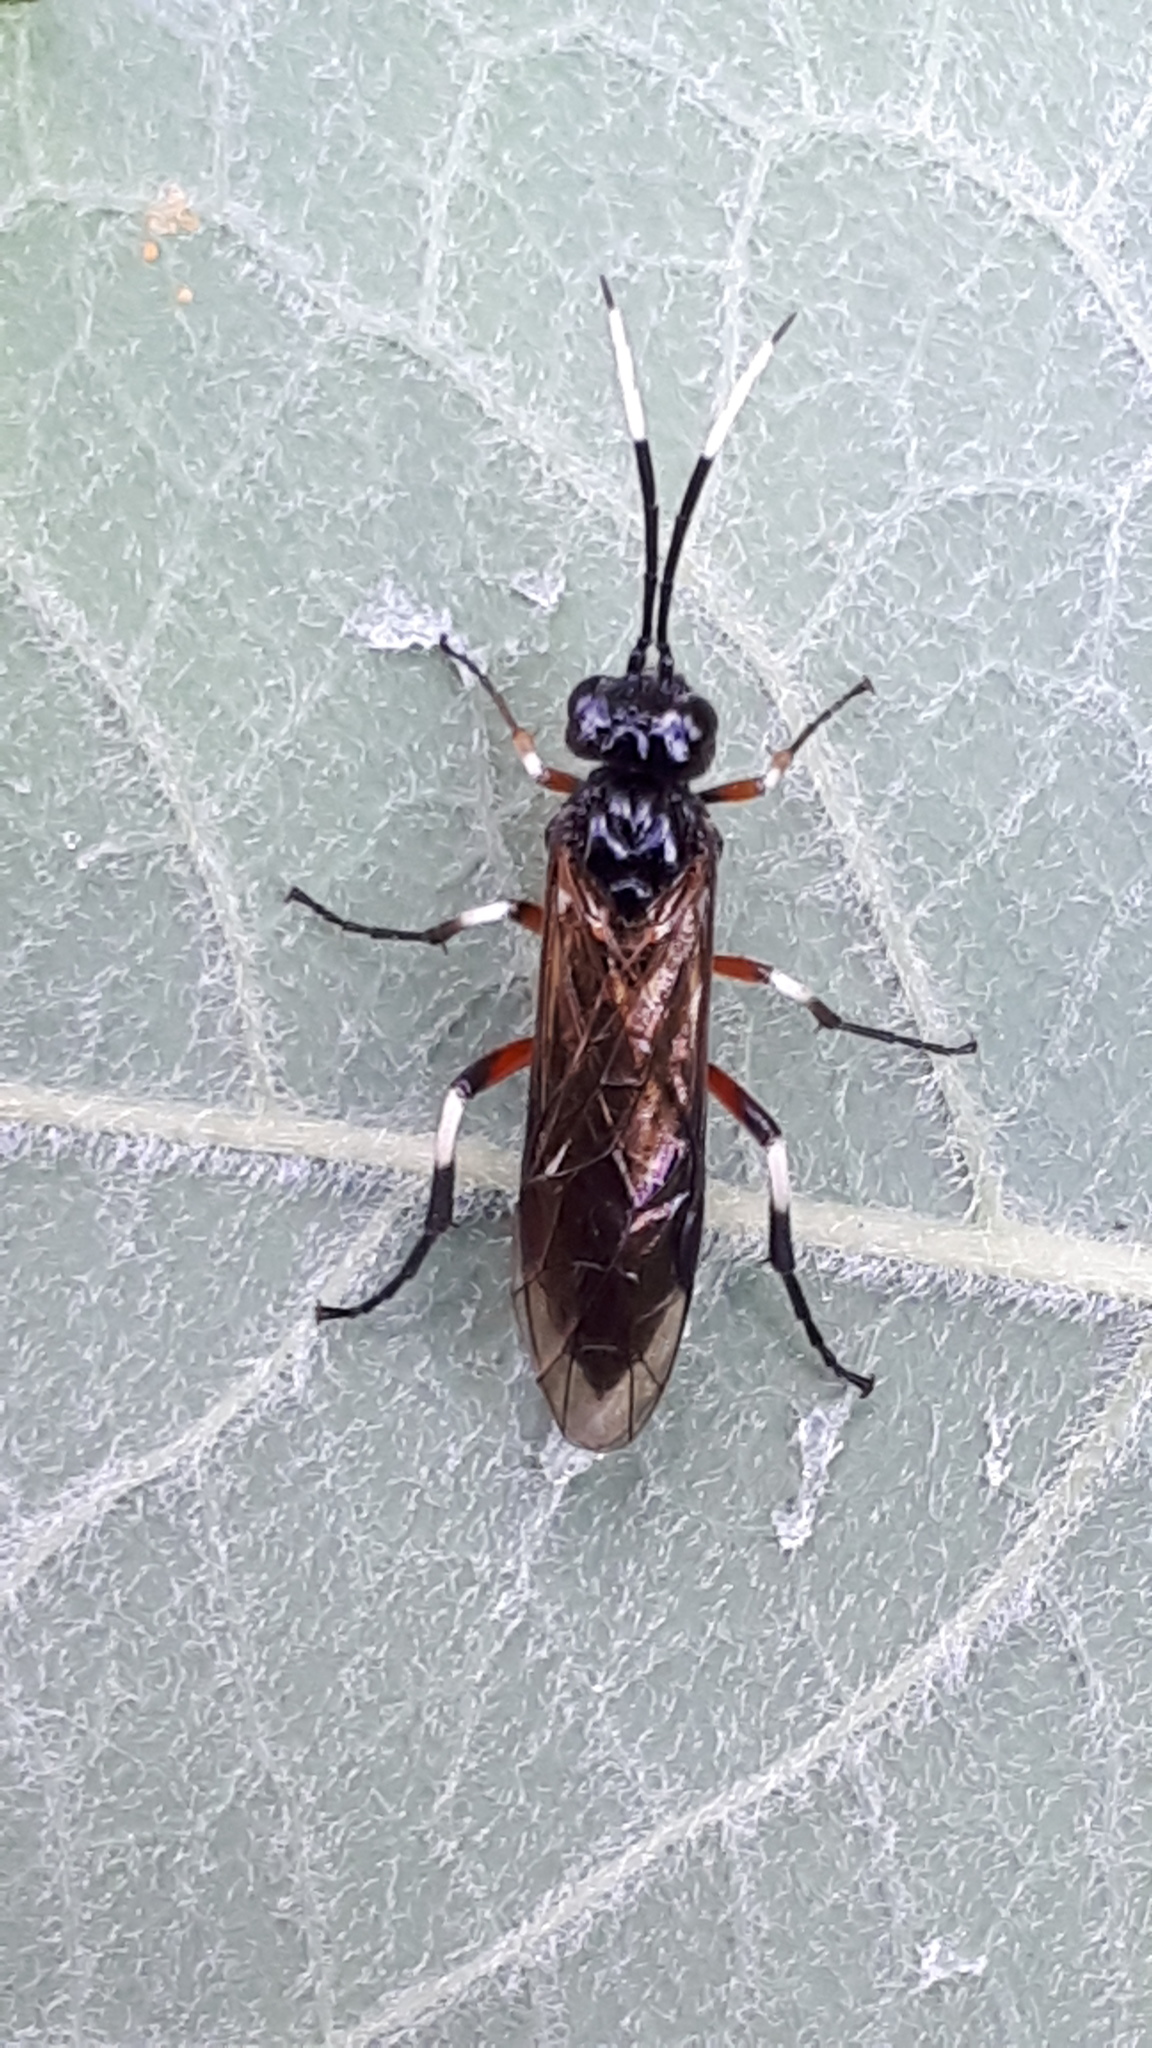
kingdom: Animalia
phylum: Arthropoda
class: Insecta
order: Hymenoptera
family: Tenthredinidae
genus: Apethymus
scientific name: Apethymus serotinus
